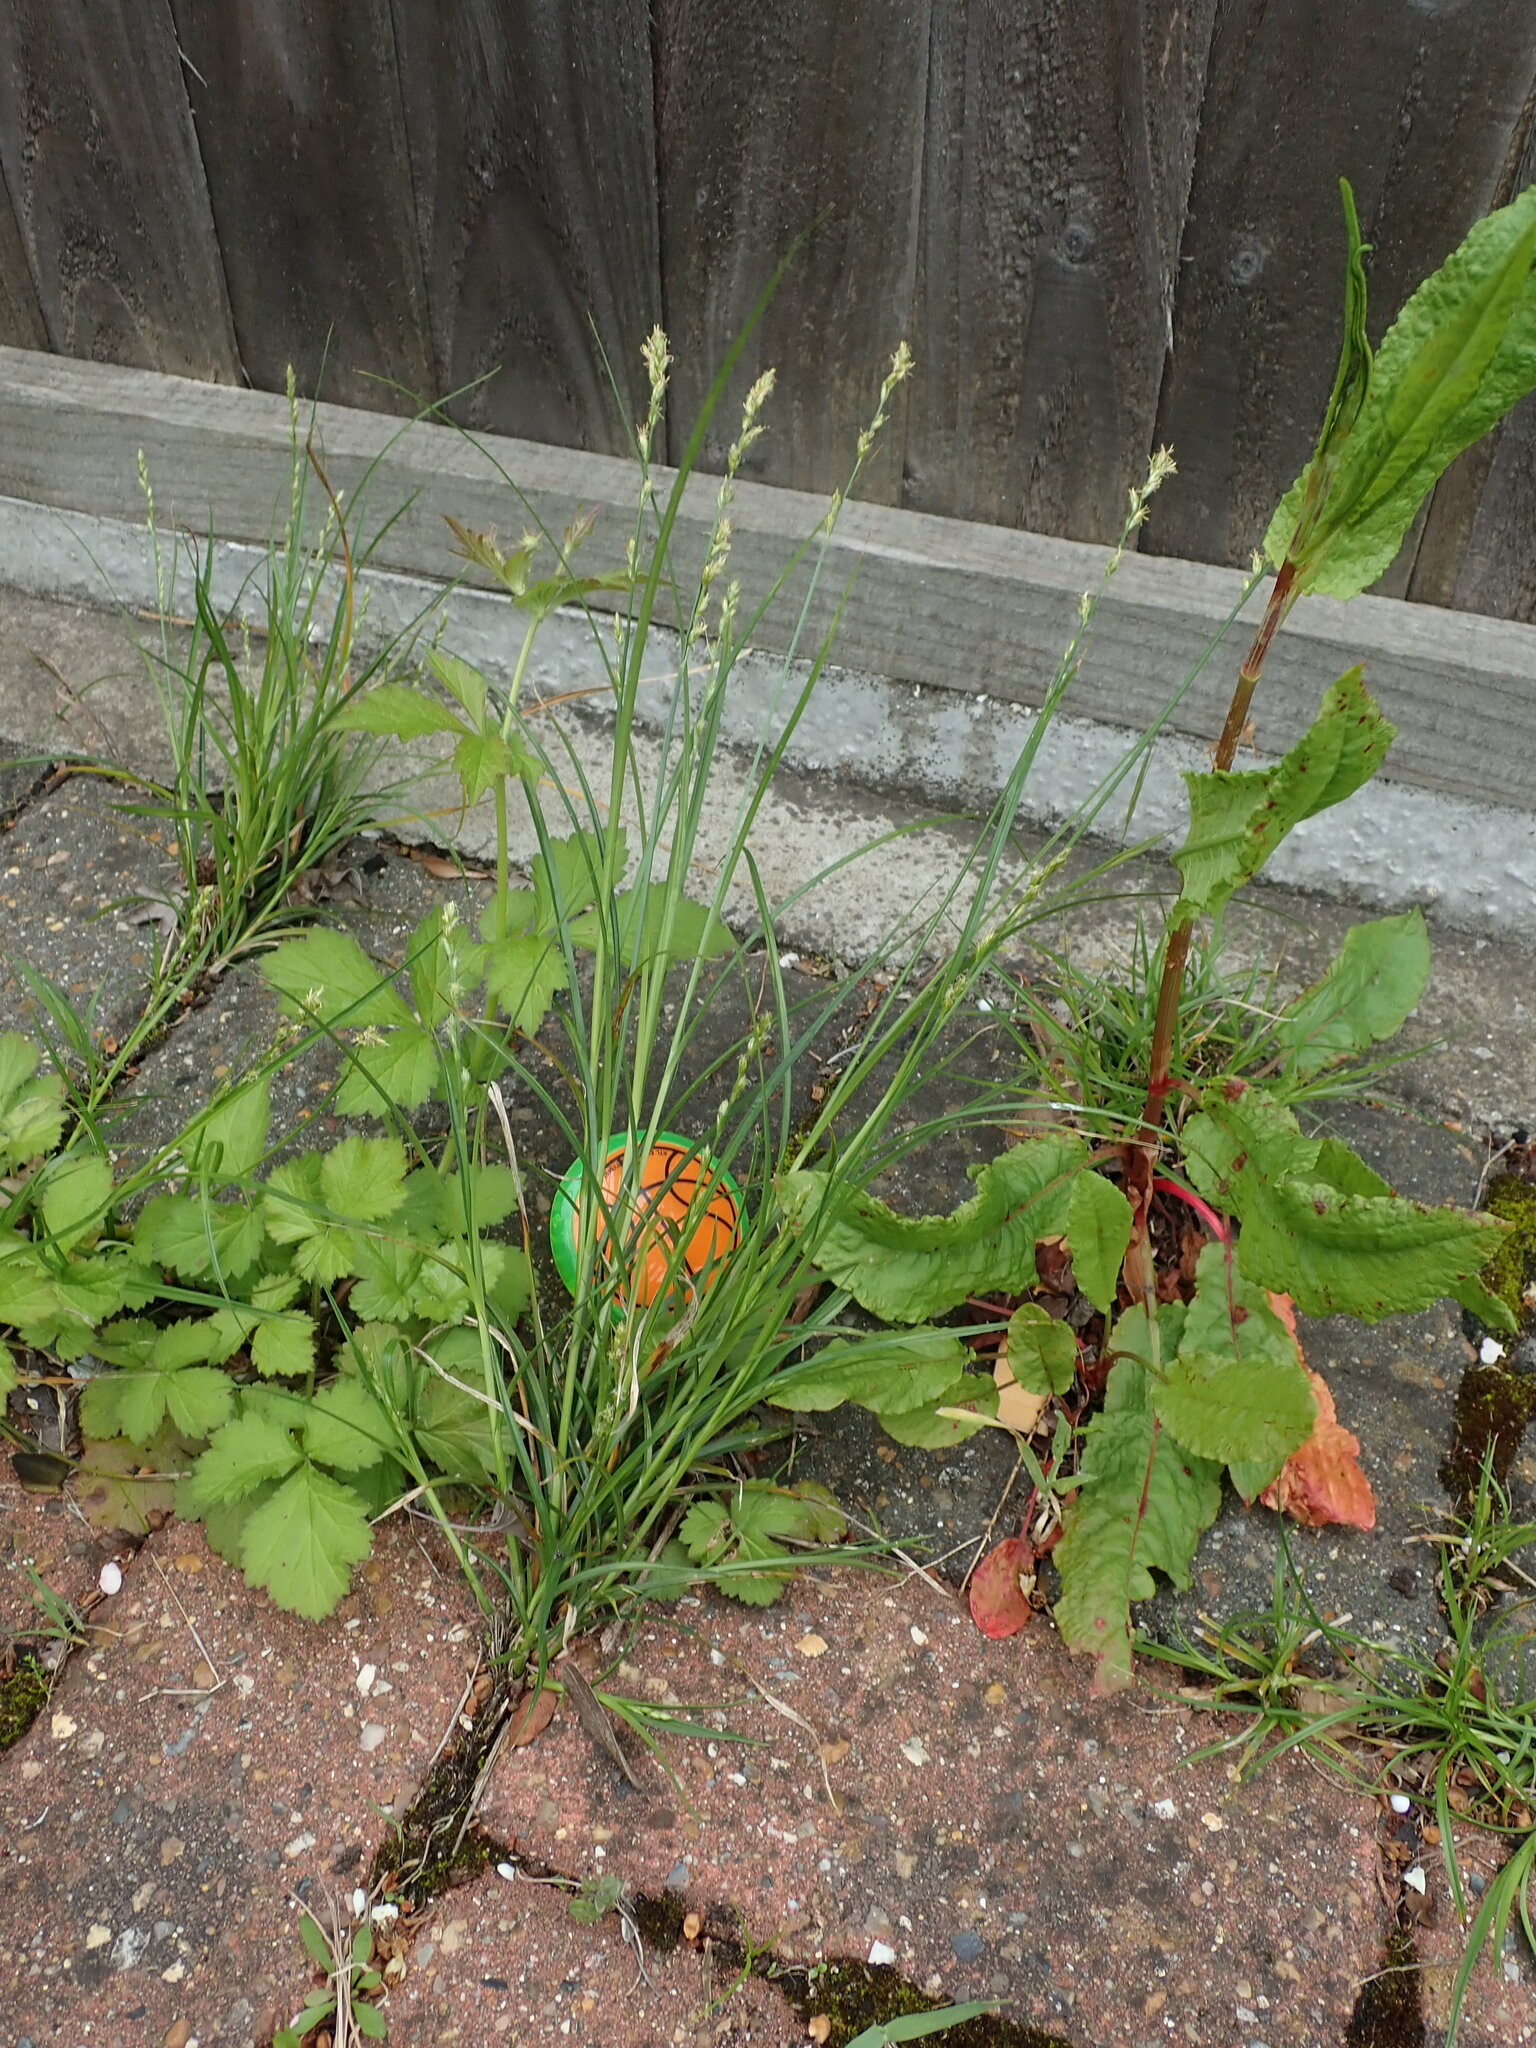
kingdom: Plantae
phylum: Tracheophyta
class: Liliopsida
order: Poales
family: Cyperaceae
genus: Carex
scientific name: Carex divulsa
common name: Grassland sedge
